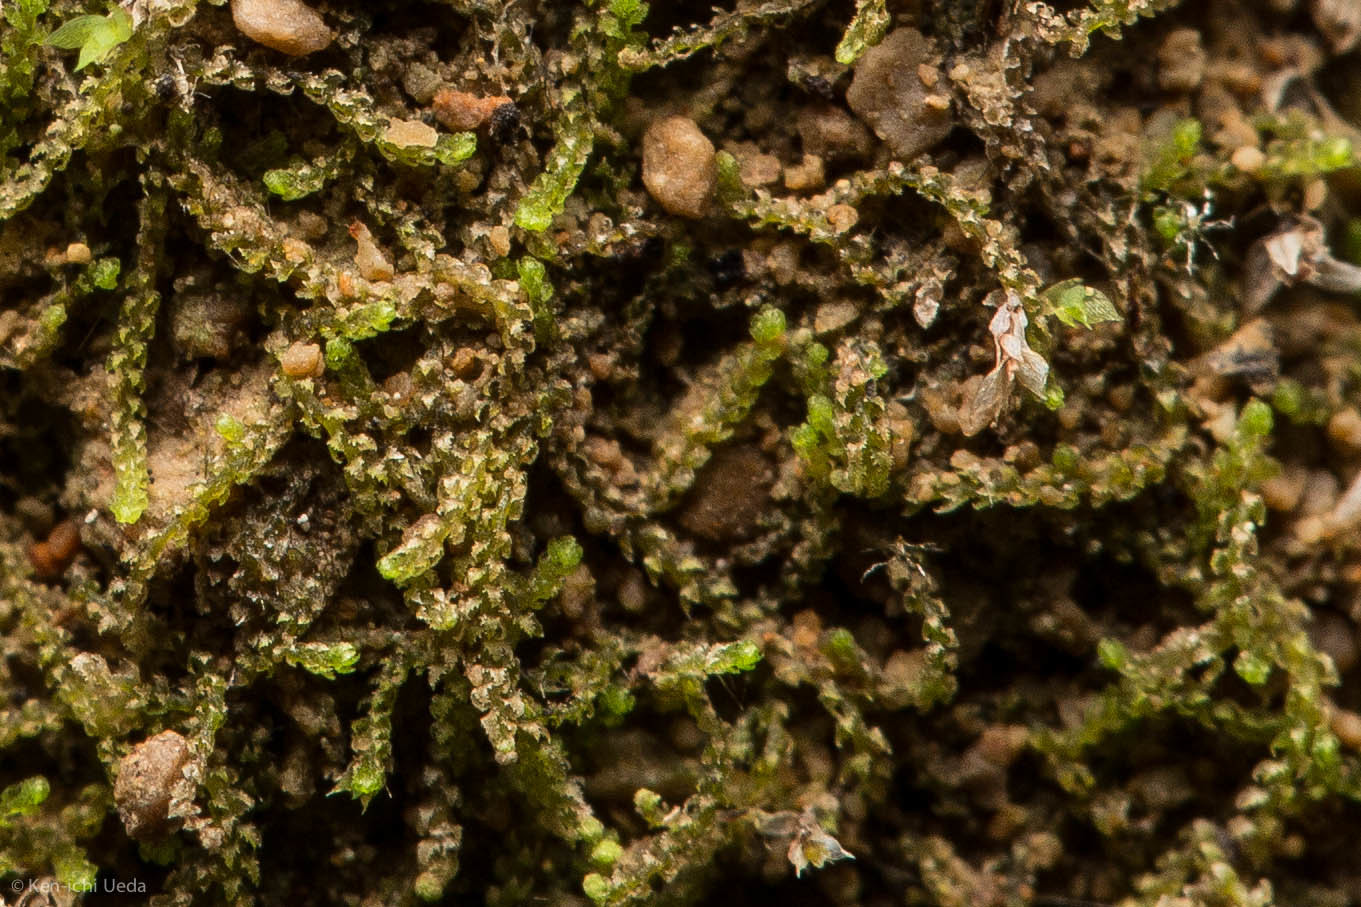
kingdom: Plantae
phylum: Marchantiophyta
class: Jungermanniopsida
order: Jungermanniales
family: Cephaloziellaceae
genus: Cephaloziella
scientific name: Cephaloziella turneri
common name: Turner's threadwort
